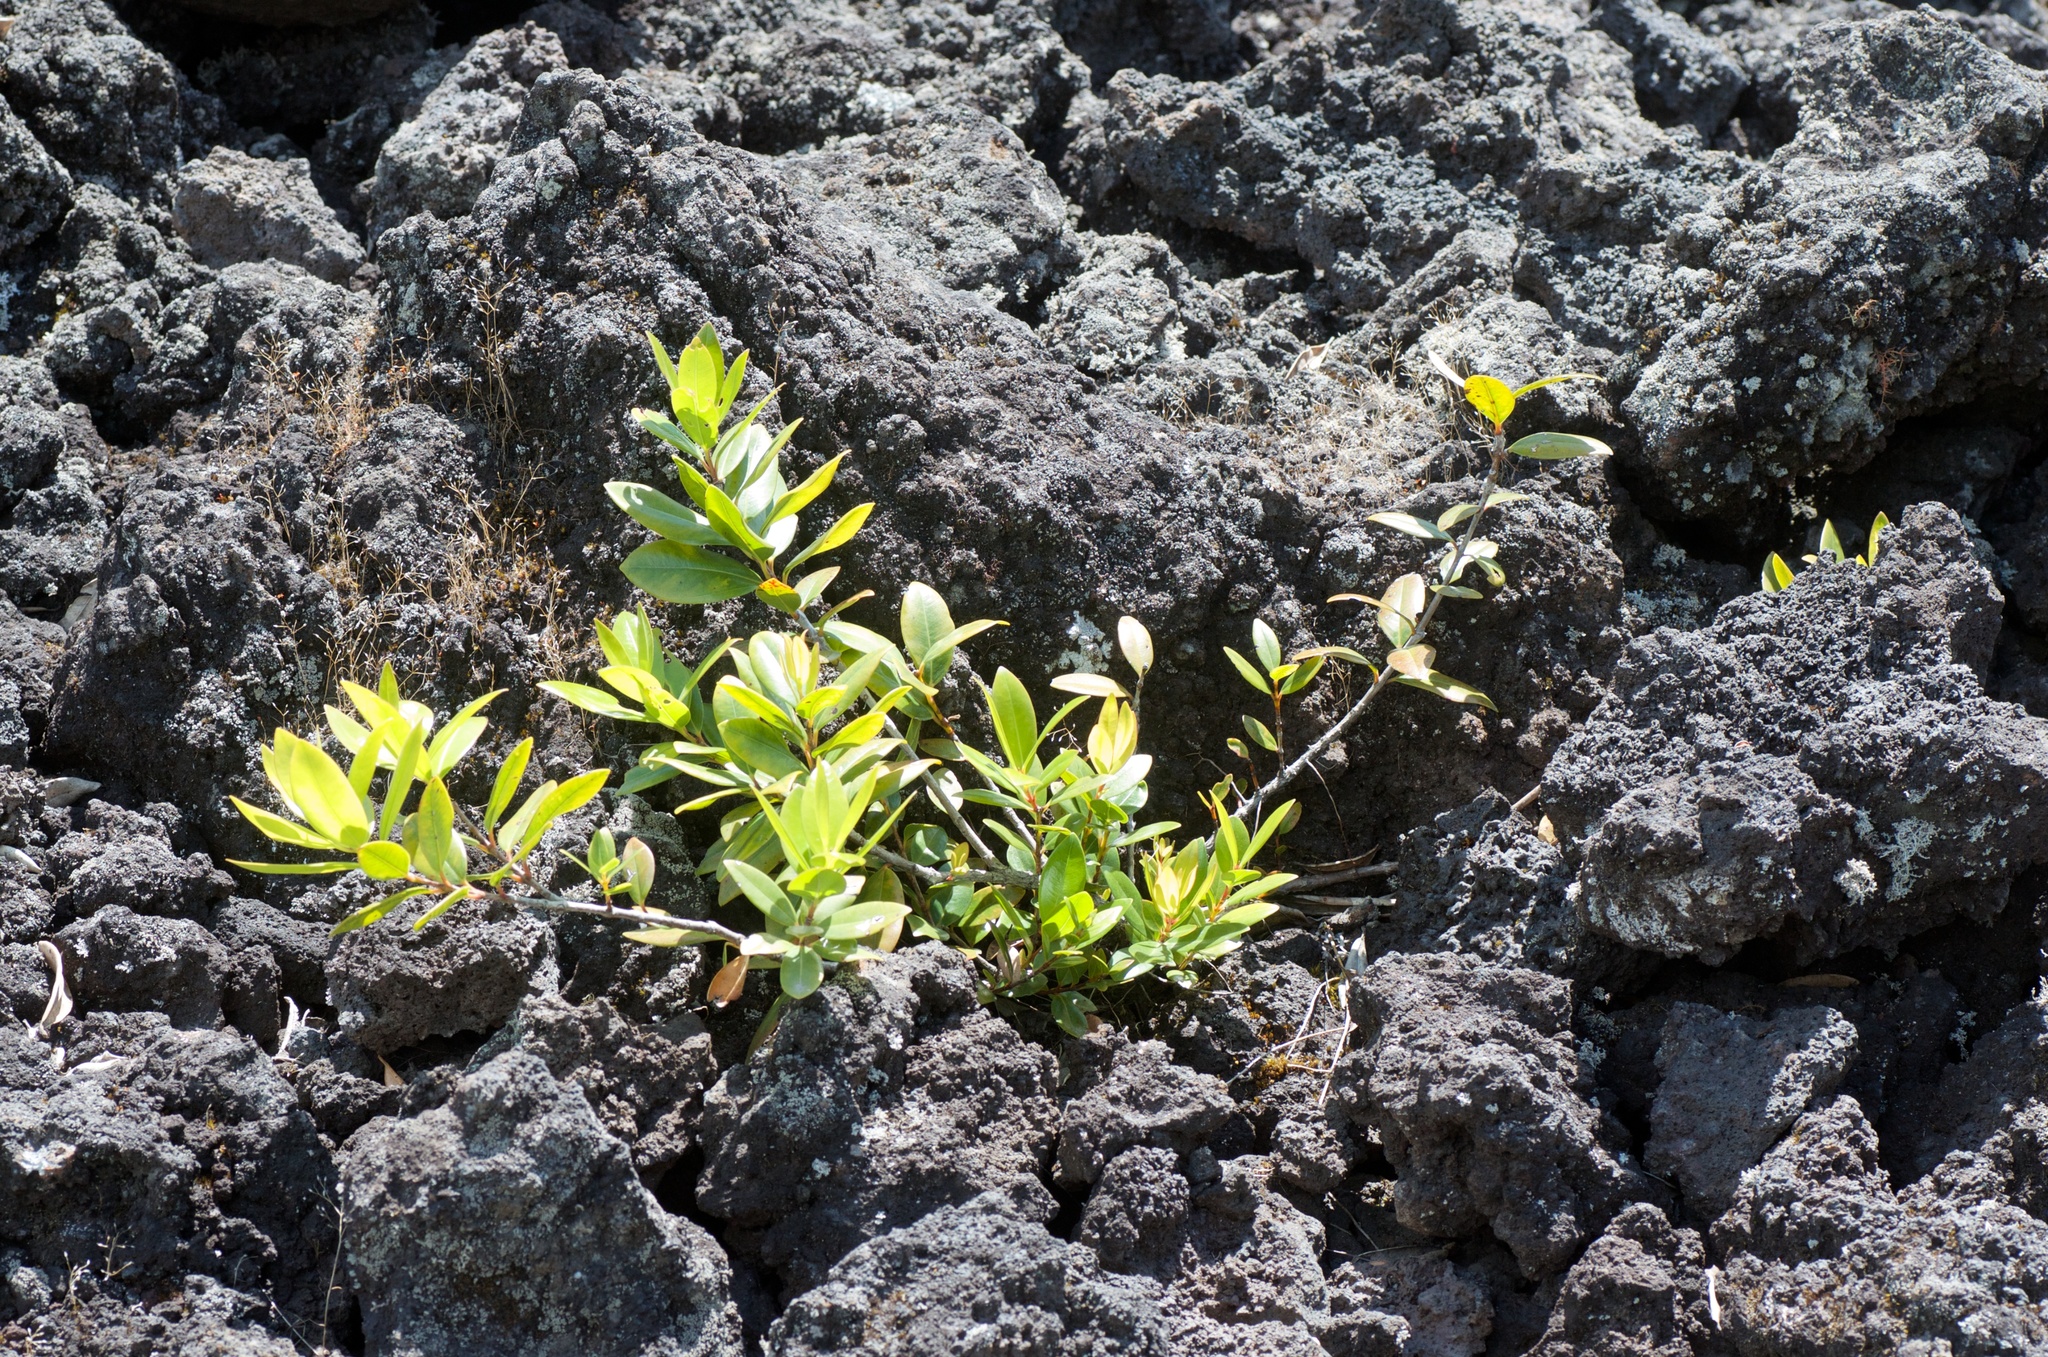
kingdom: Plantae
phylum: Tracheophyta
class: Magnoliopsida
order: Myrtales
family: Myrtaceae
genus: Metrosideros
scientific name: Metrosideros excelsa
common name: New zealand christmastree
